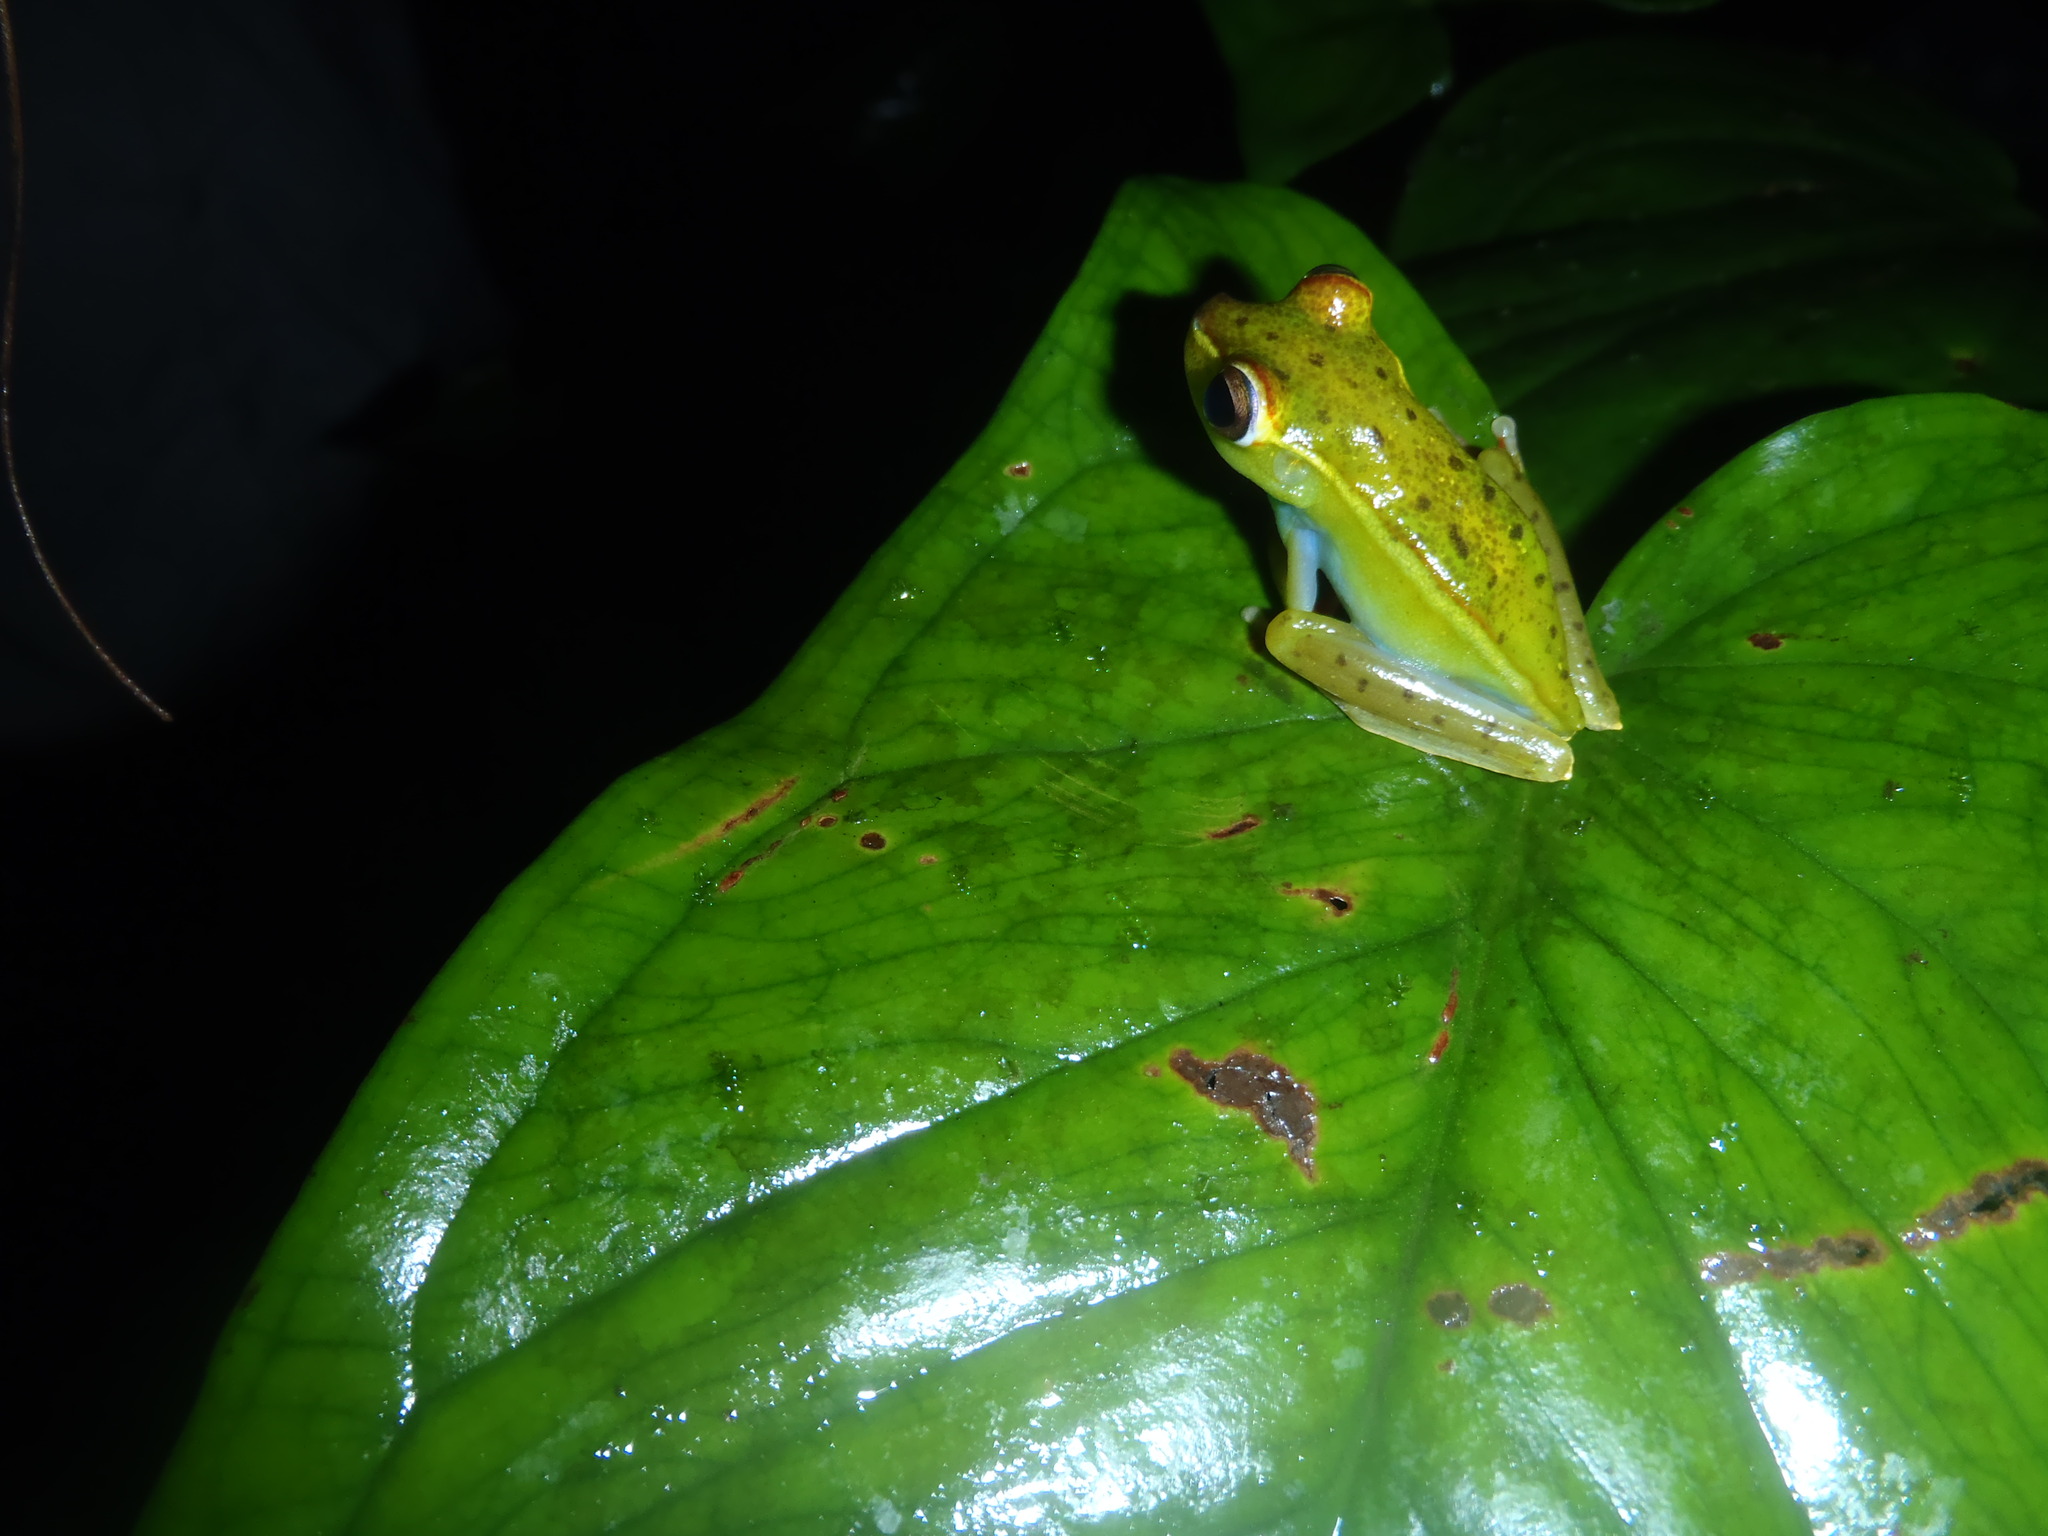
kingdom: Animalia
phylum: Chordata
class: Amphibia
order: Anura
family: Hylidae
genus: Boana
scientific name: Boana rufitela
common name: Canal zone treefrog
